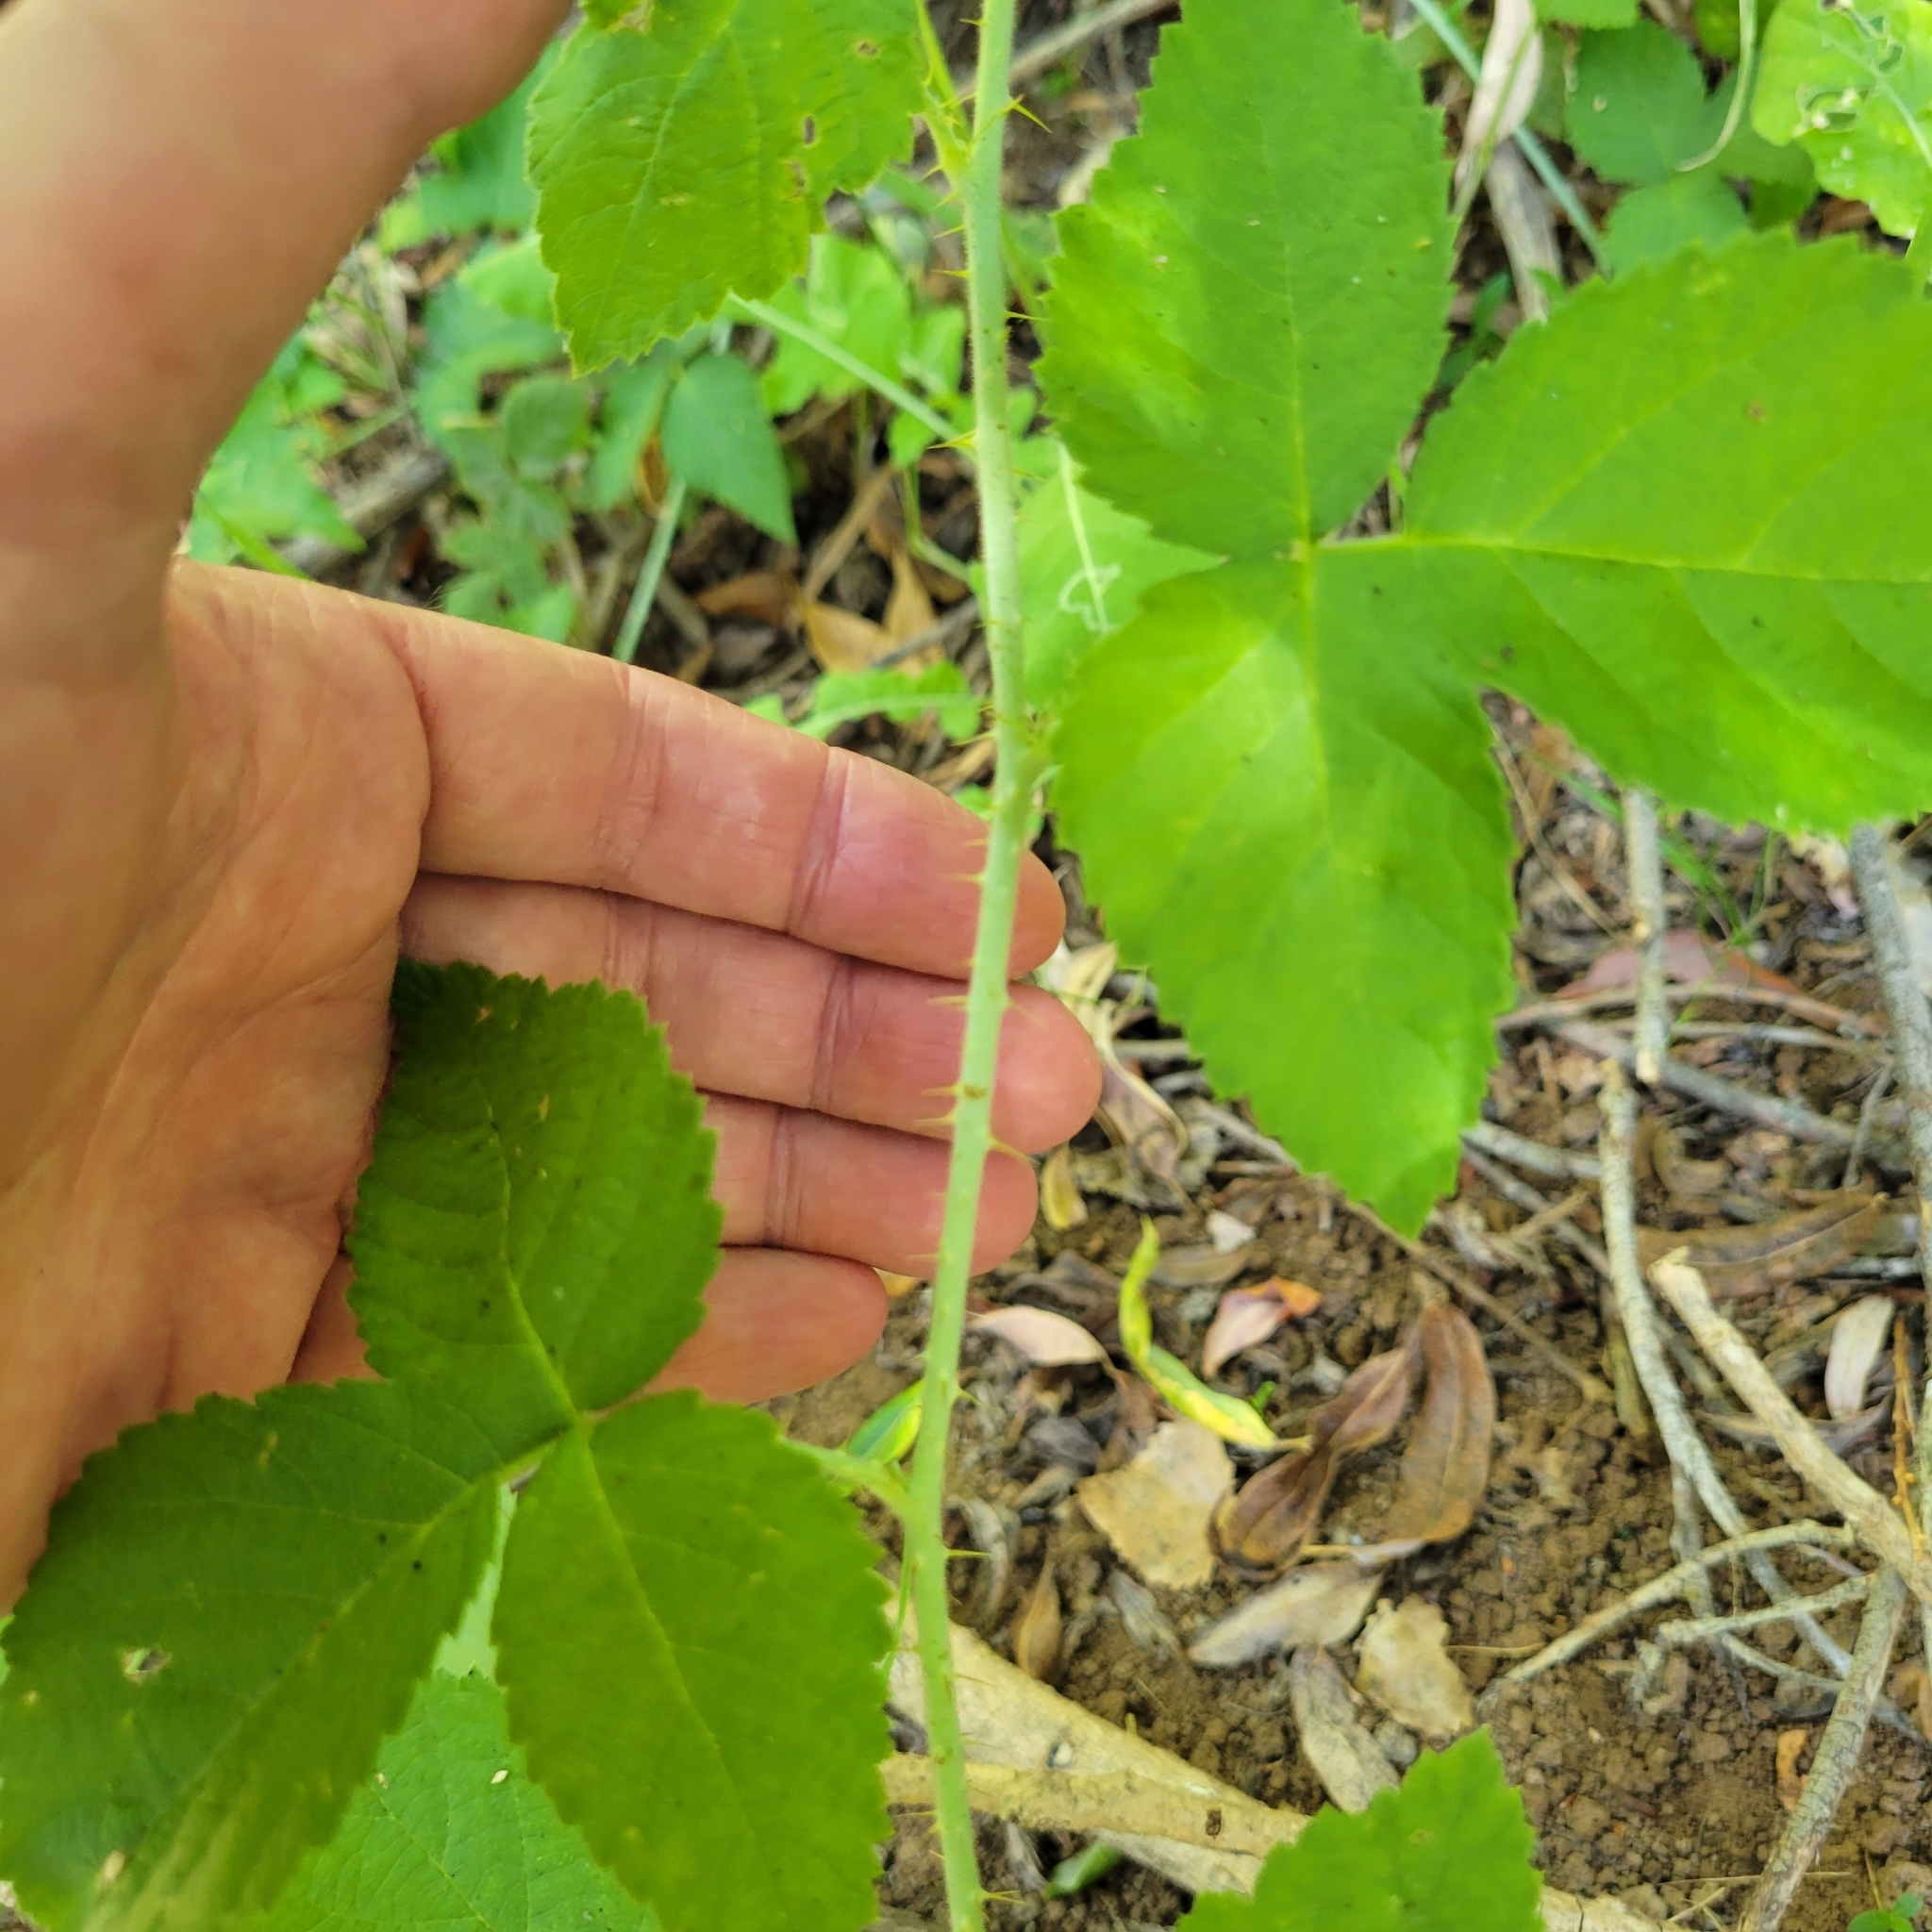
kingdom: Plantae
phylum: Tracheophyta
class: Magnoliopsida
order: Rosales
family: Rosaceae
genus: Rubus
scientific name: Rubus ursinus
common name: Pacific blackberry
